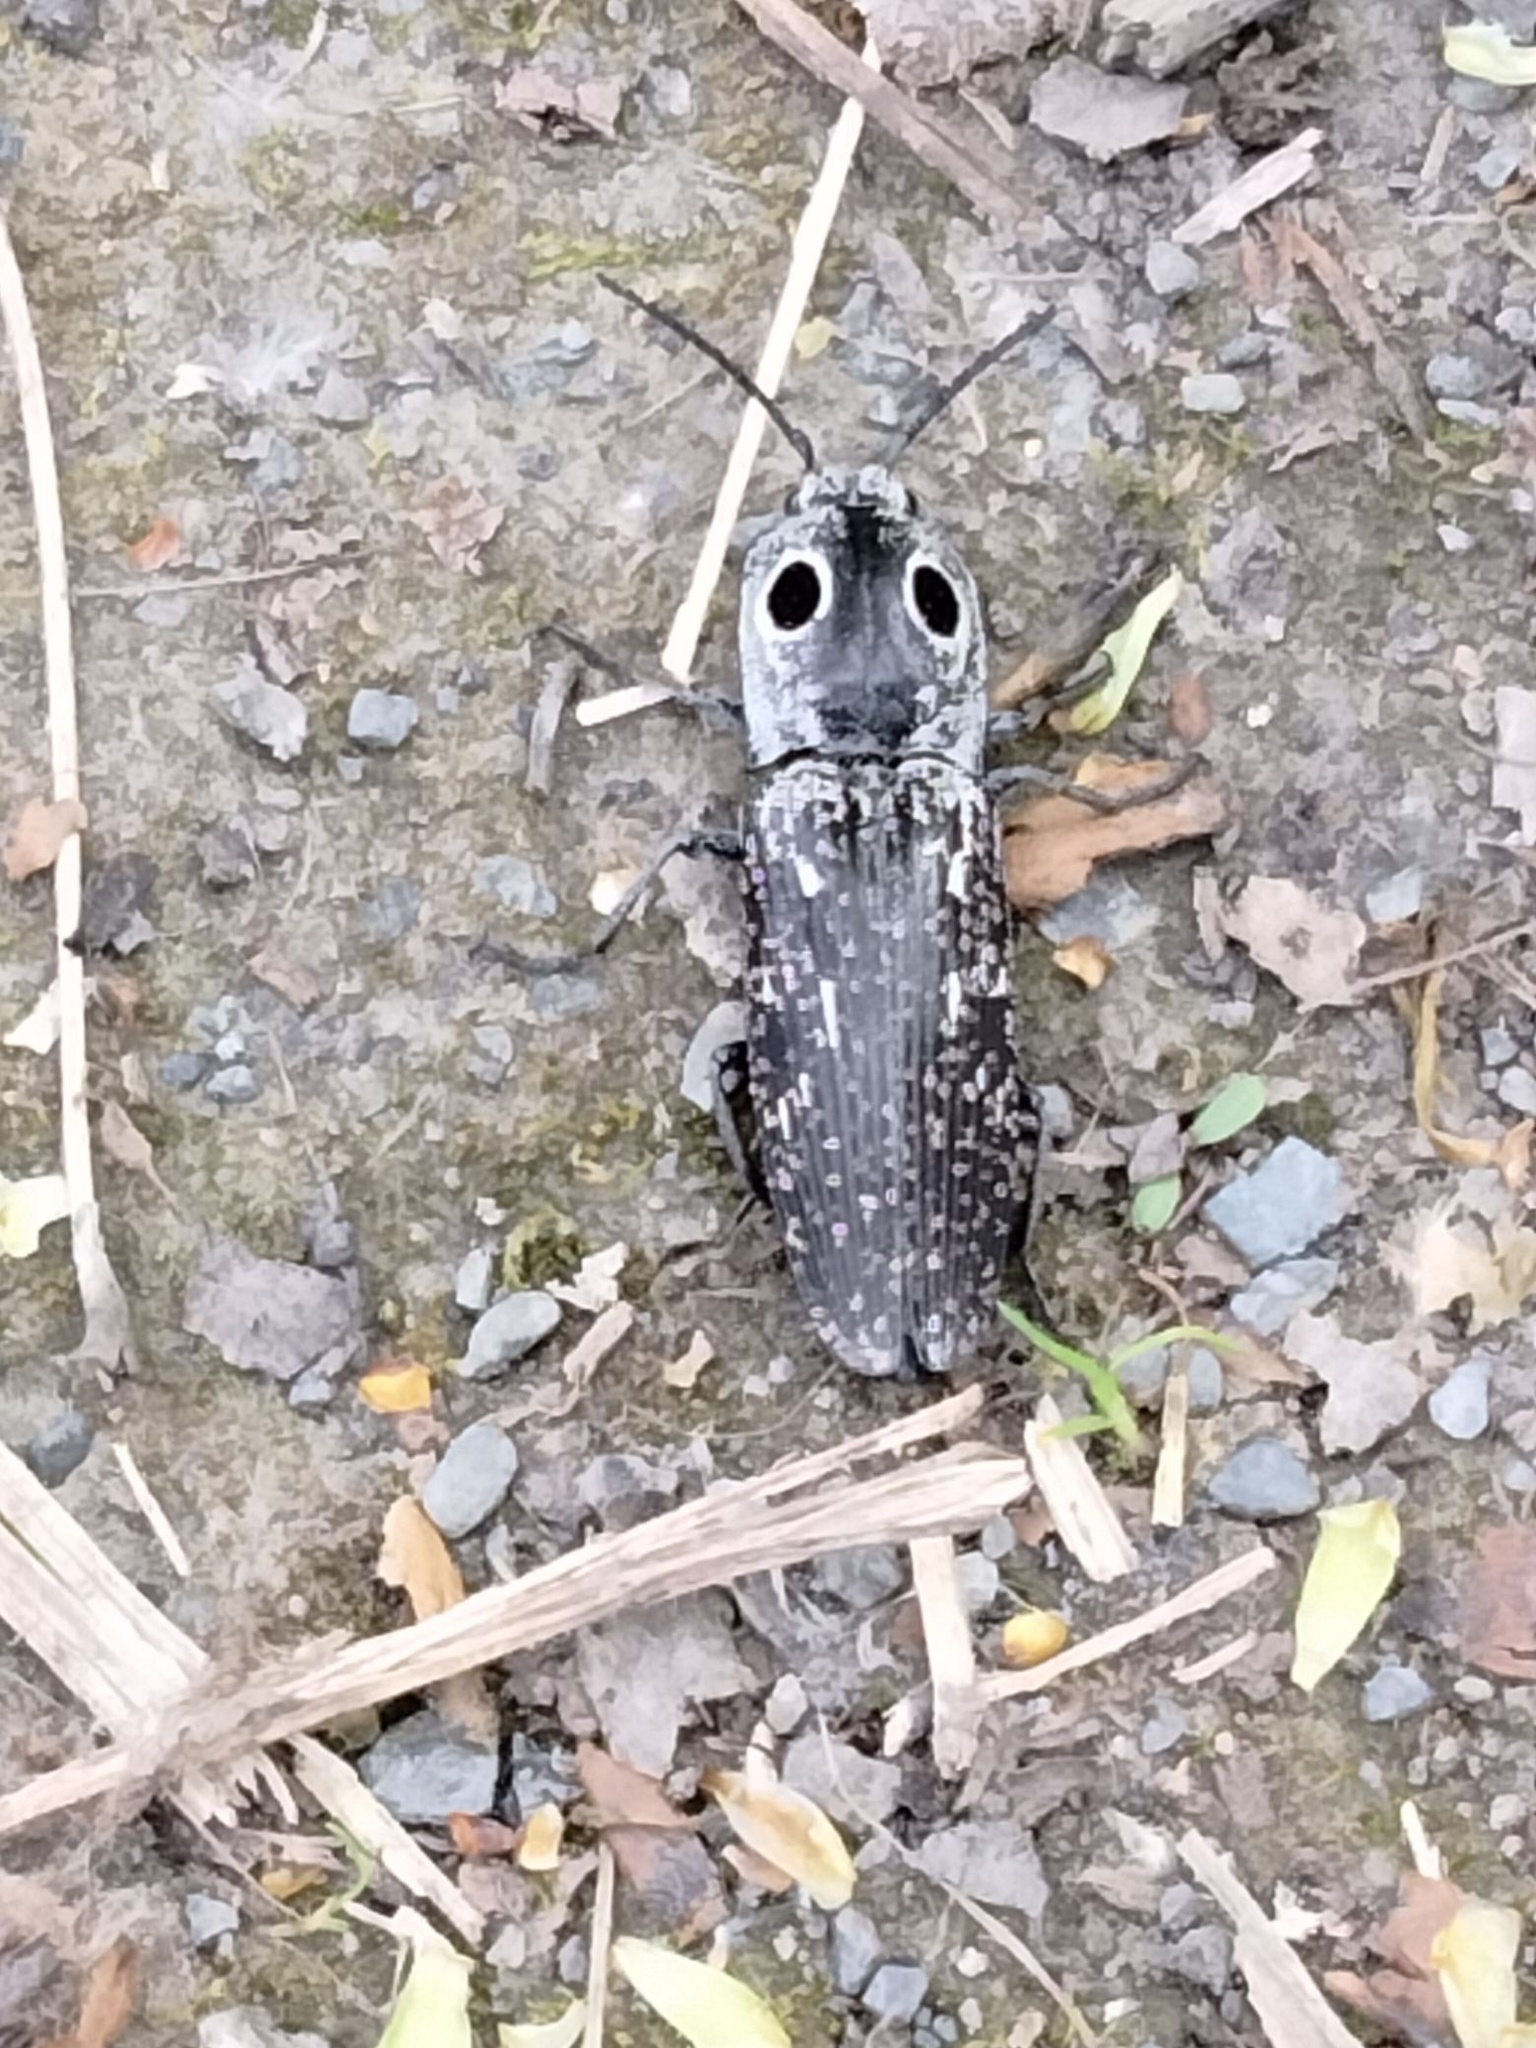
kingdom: Animalia
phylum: Arthropoda
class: Insecta
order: Coleoptera
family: Elateridae
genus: Alaus
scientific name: Alaus oculatus
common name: Eastern eyed click beetle
